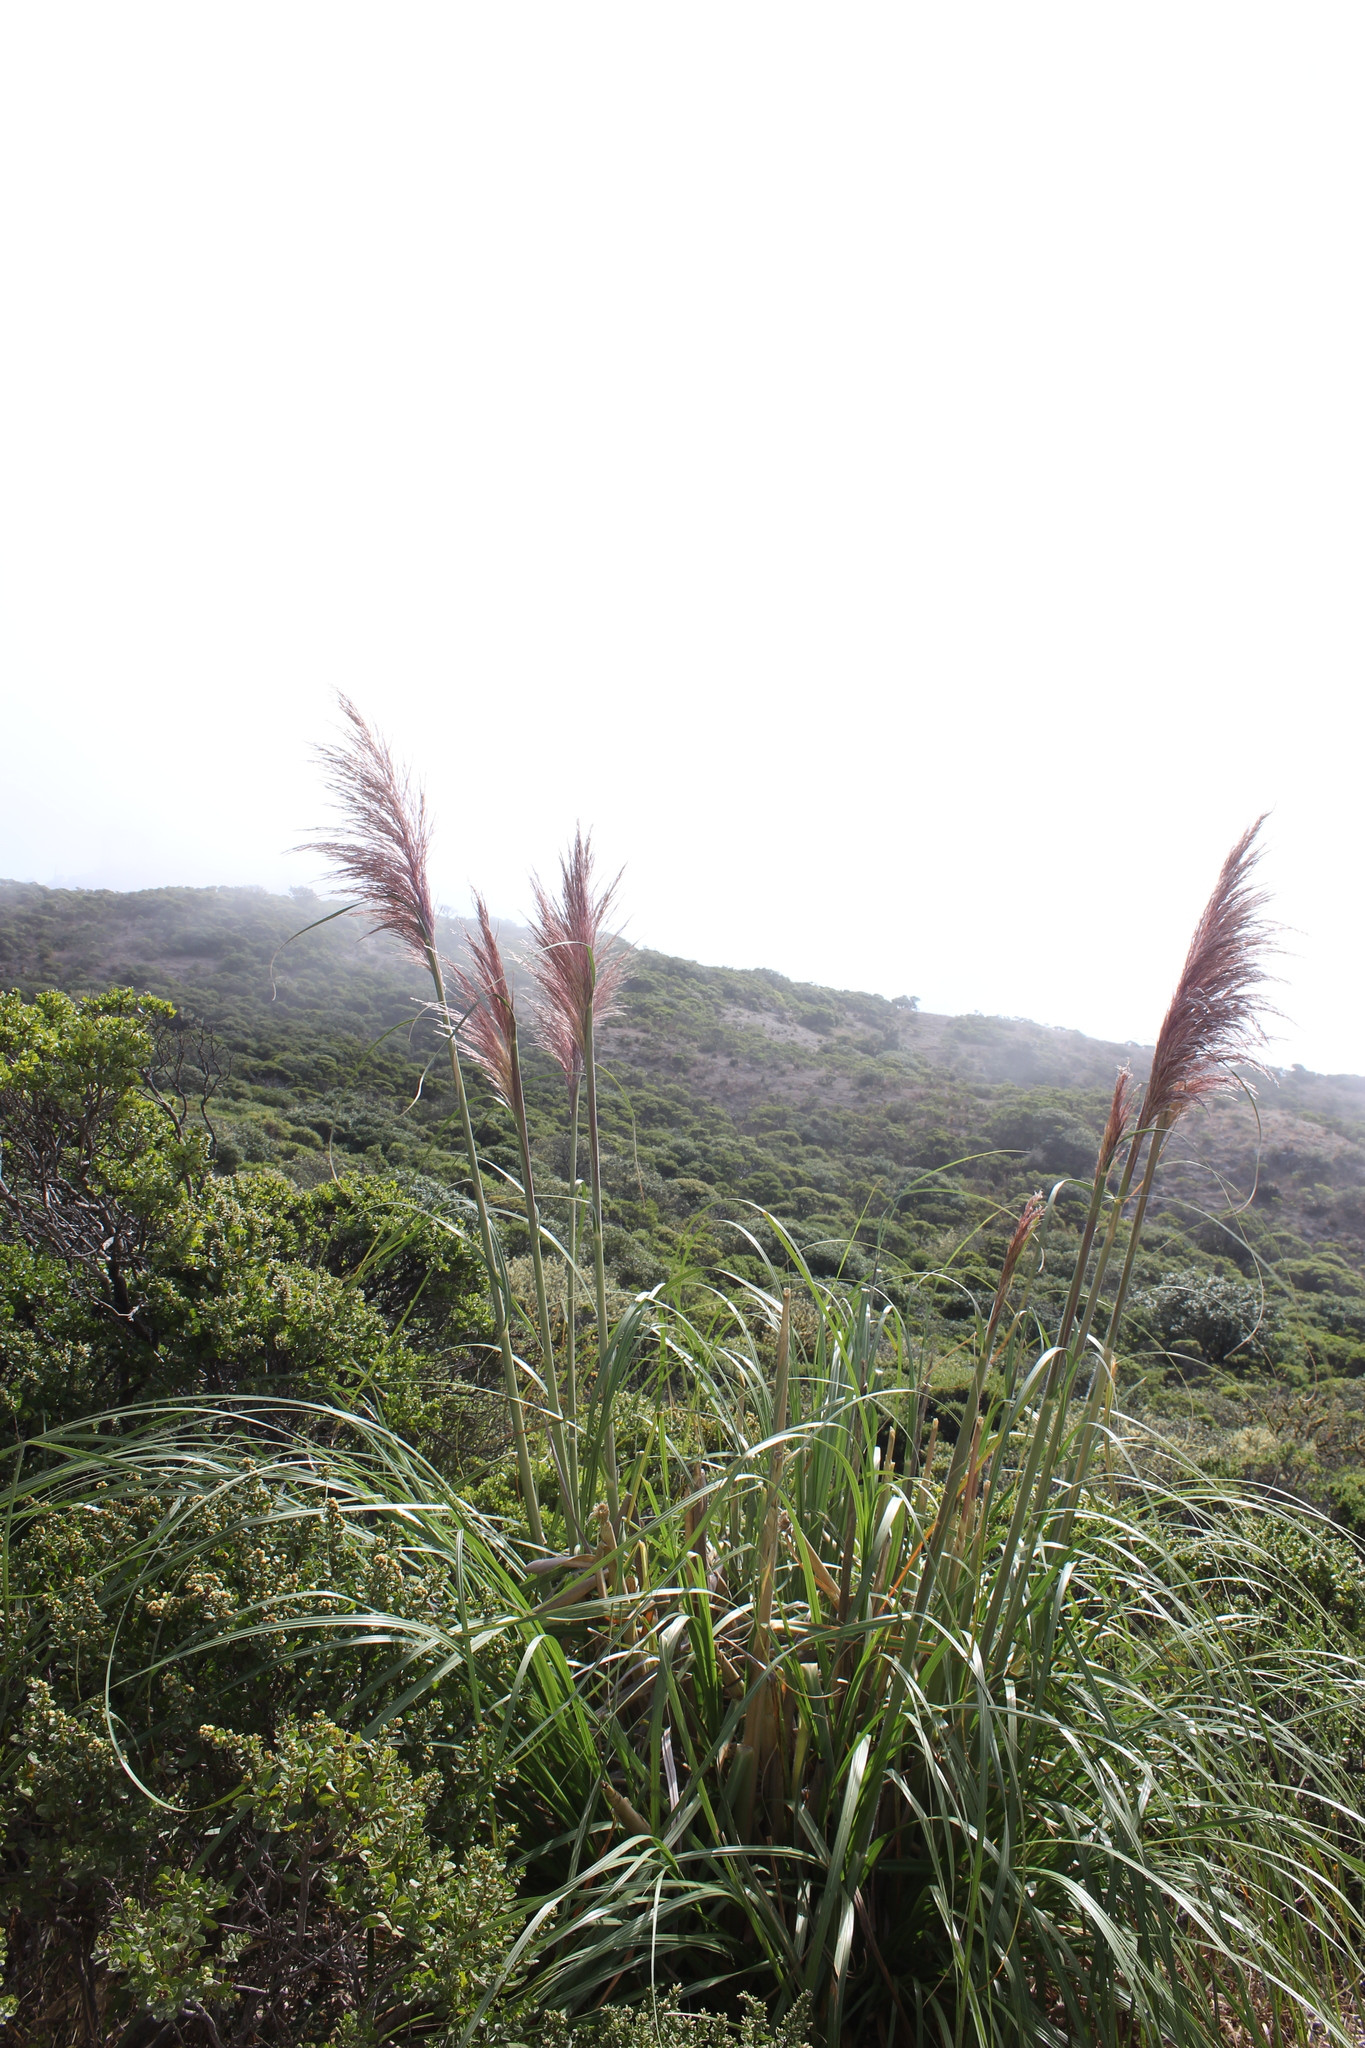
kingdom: Plantae
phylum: Tracheophyta
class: Liliopsida
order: Poales
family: Poaceae
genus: Cortaderia
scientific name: Cortaderia jubata
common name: Purple pampas grass
